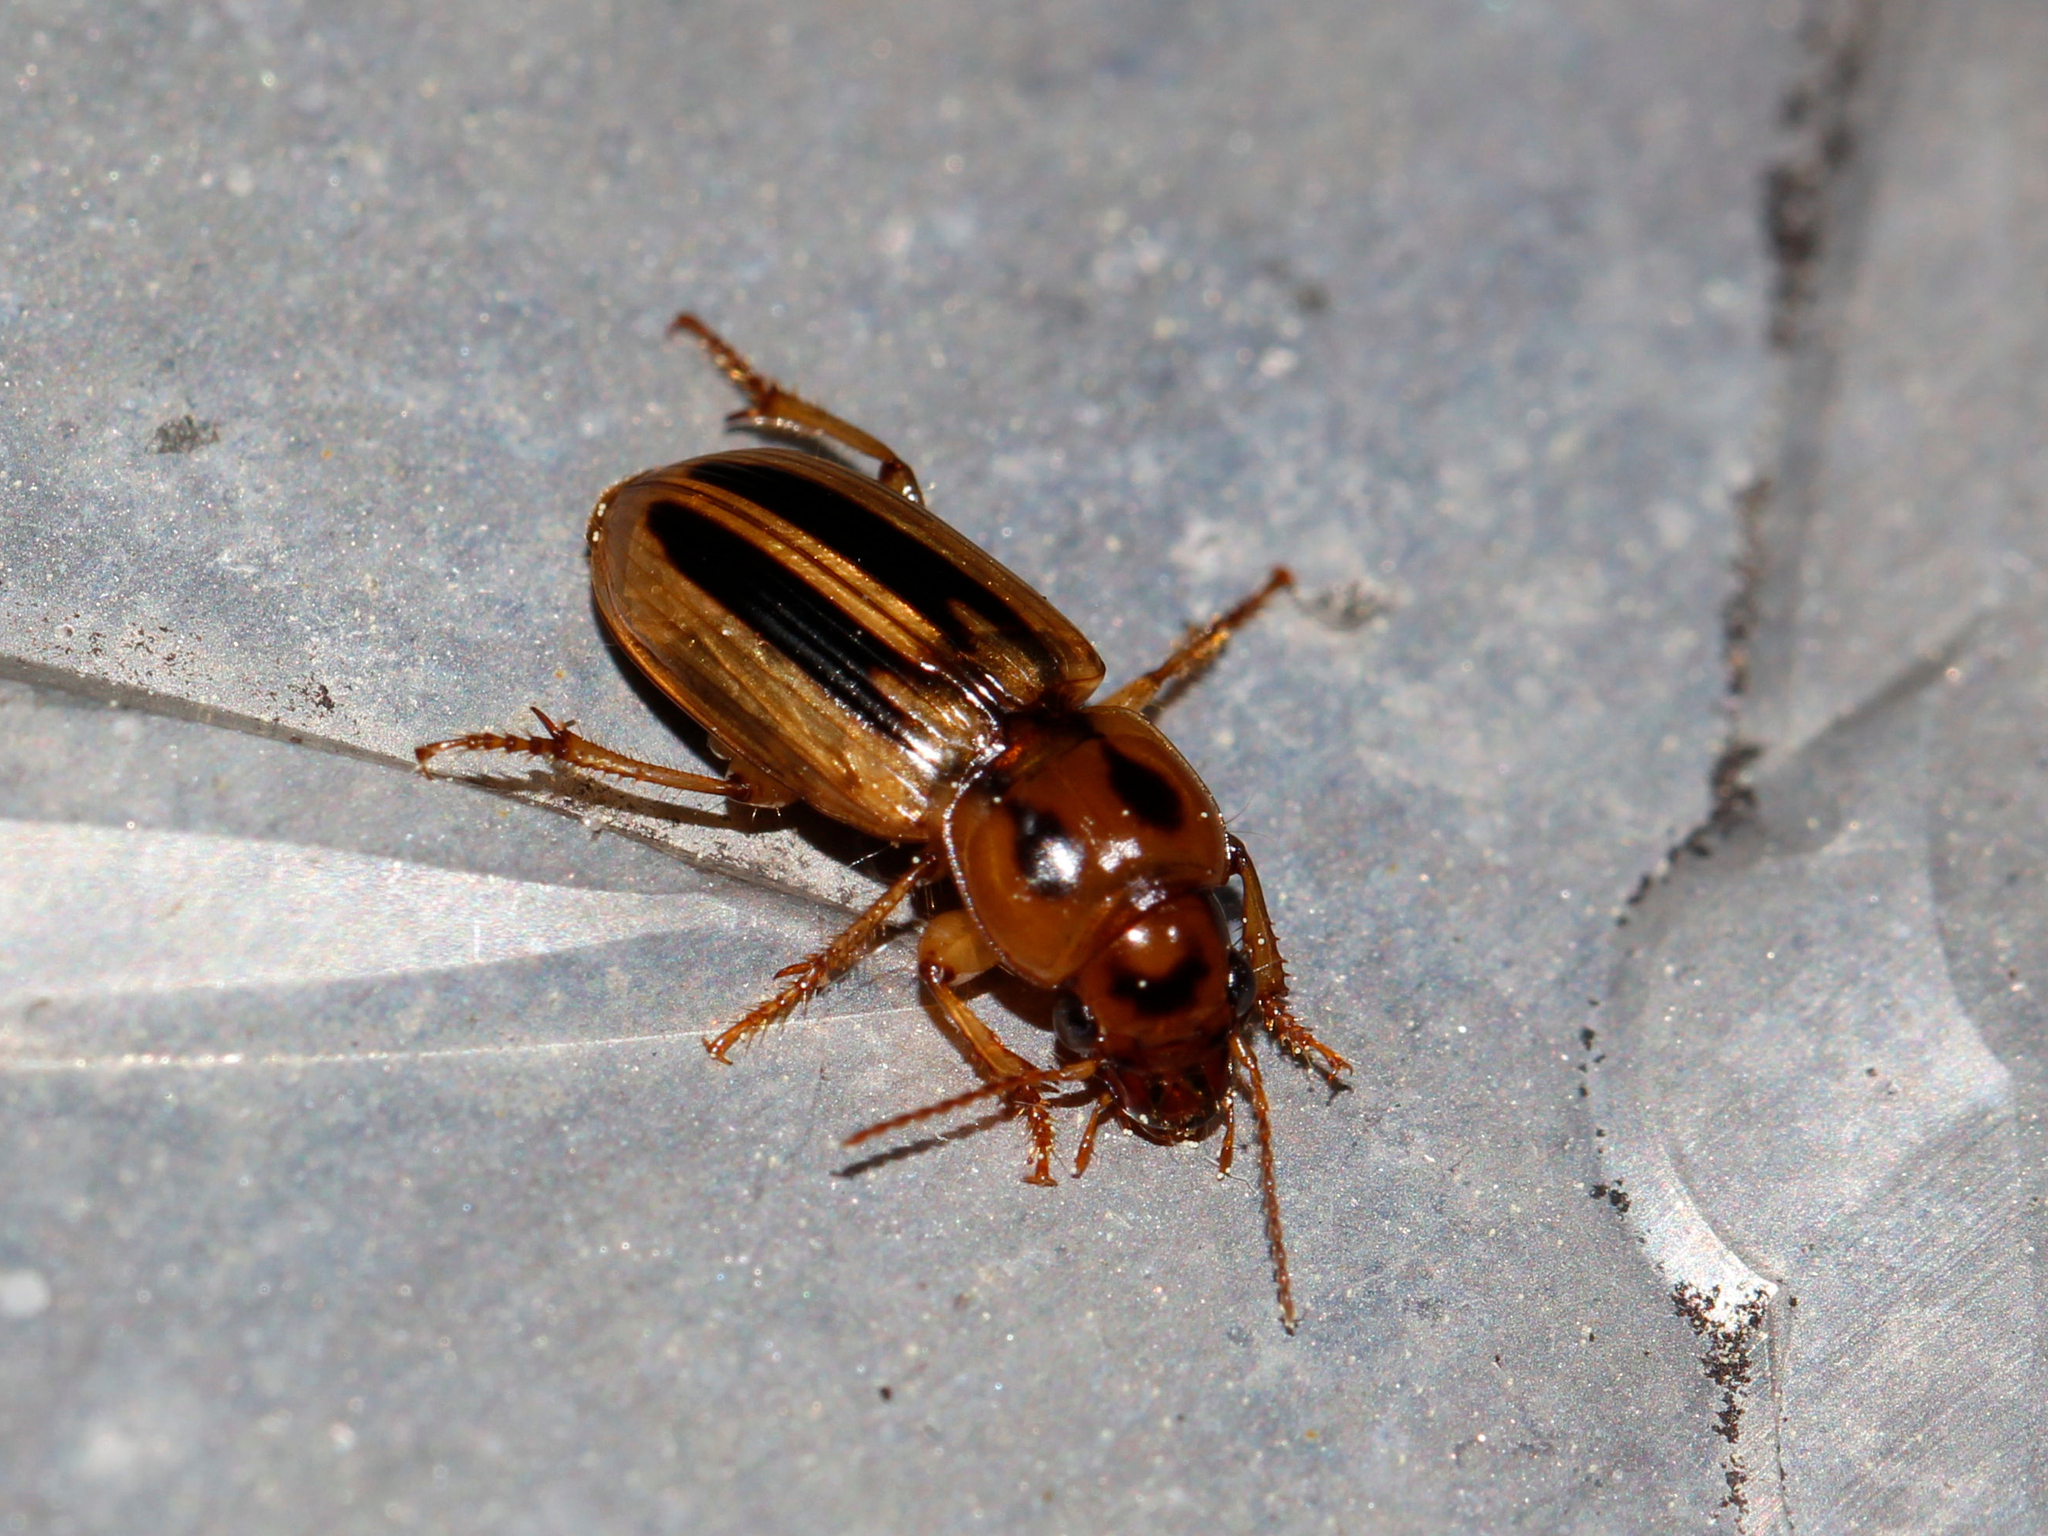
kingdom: Animalia
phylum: Arthropoda
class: Insecta
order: Coleoptera
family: Carabidae
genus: Stenolophus
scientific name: Stenolophus lineola
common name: Lined stenolophus
